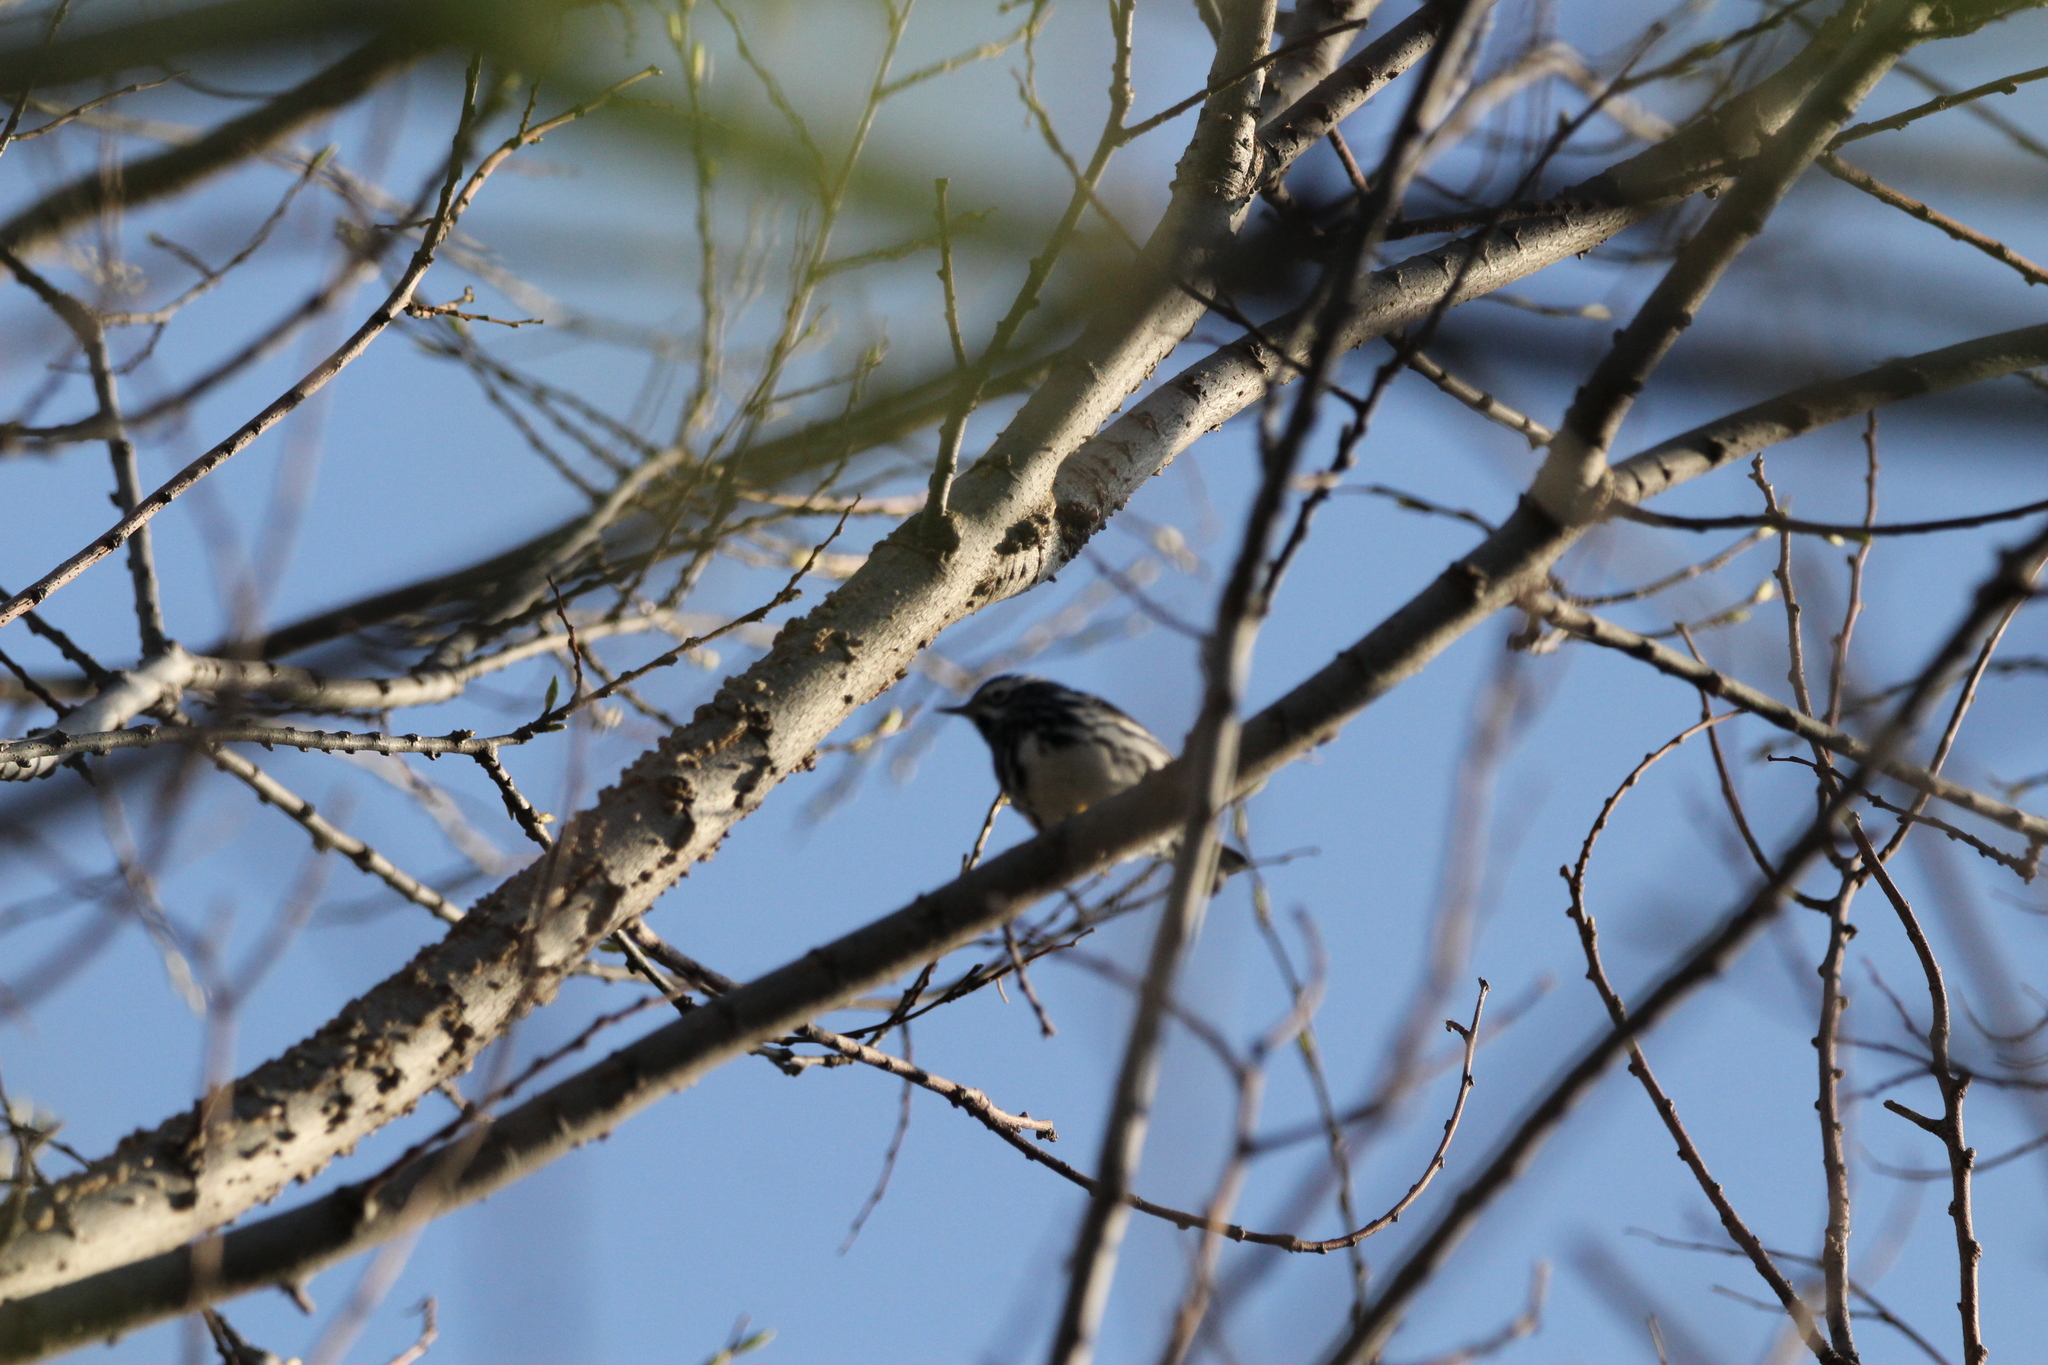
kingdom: Animalia
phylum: Chordata
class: Aves
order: Passeriformes
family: Parulidae
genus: Mniotilta
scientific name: Mniotilta varia
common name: Black-and-white warbler
